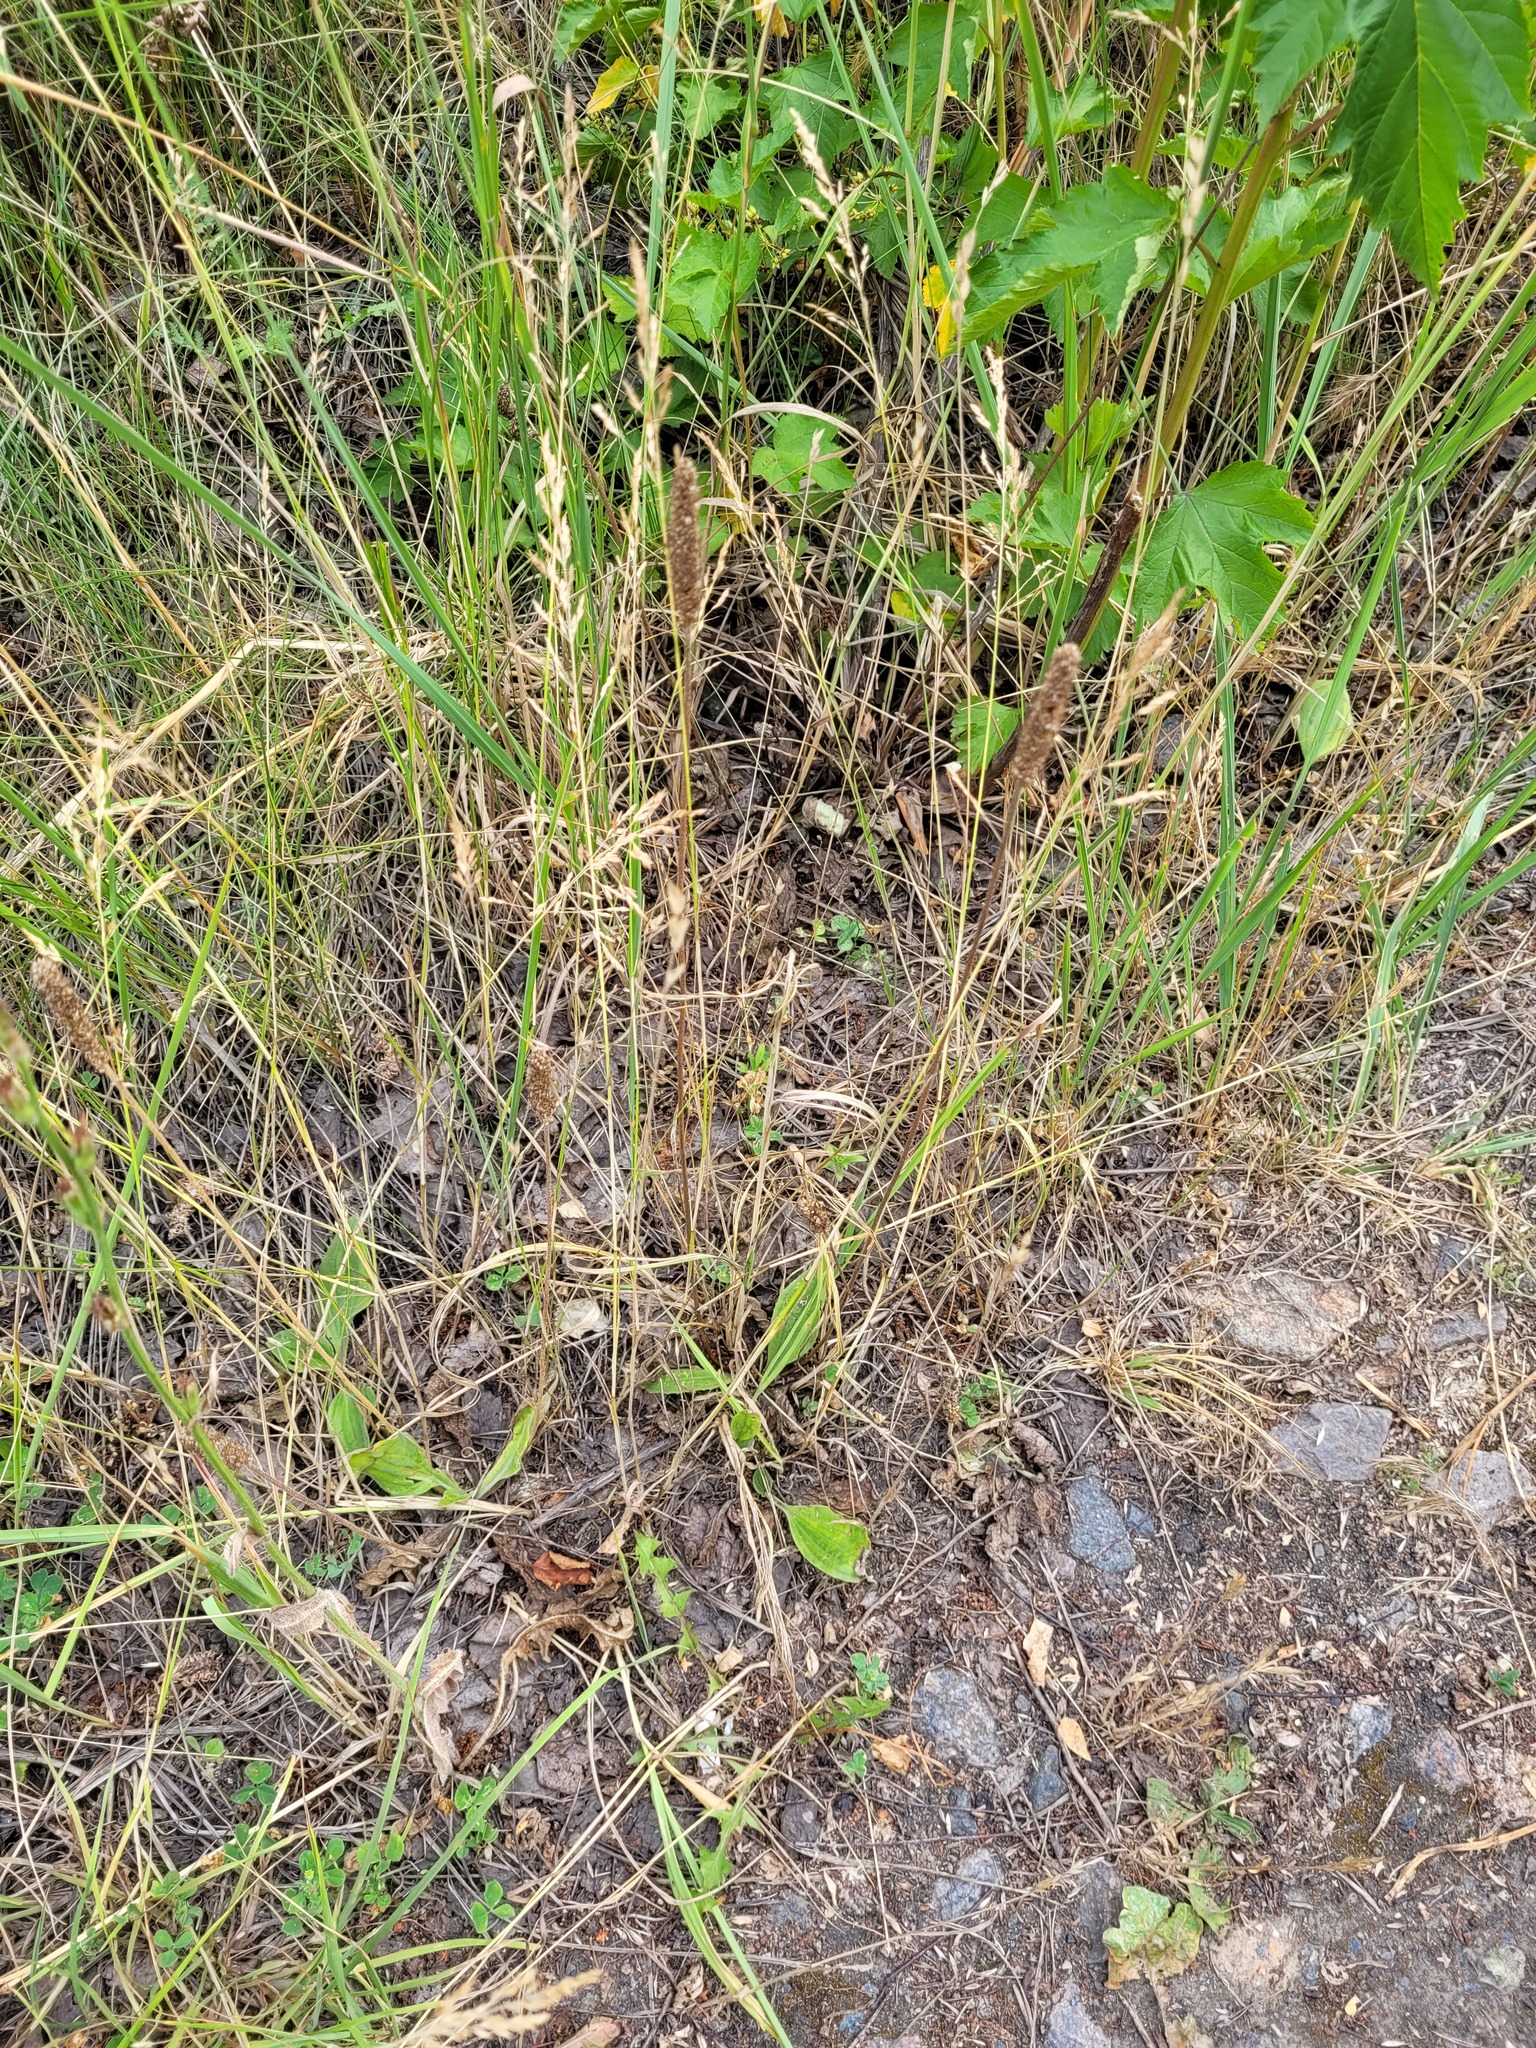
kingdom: Plantae
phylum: Tracheophyta
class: Magnoliopsida
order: Lamiales
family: Plantaginaceae
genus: Plantago
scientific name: Plantago urvillei
